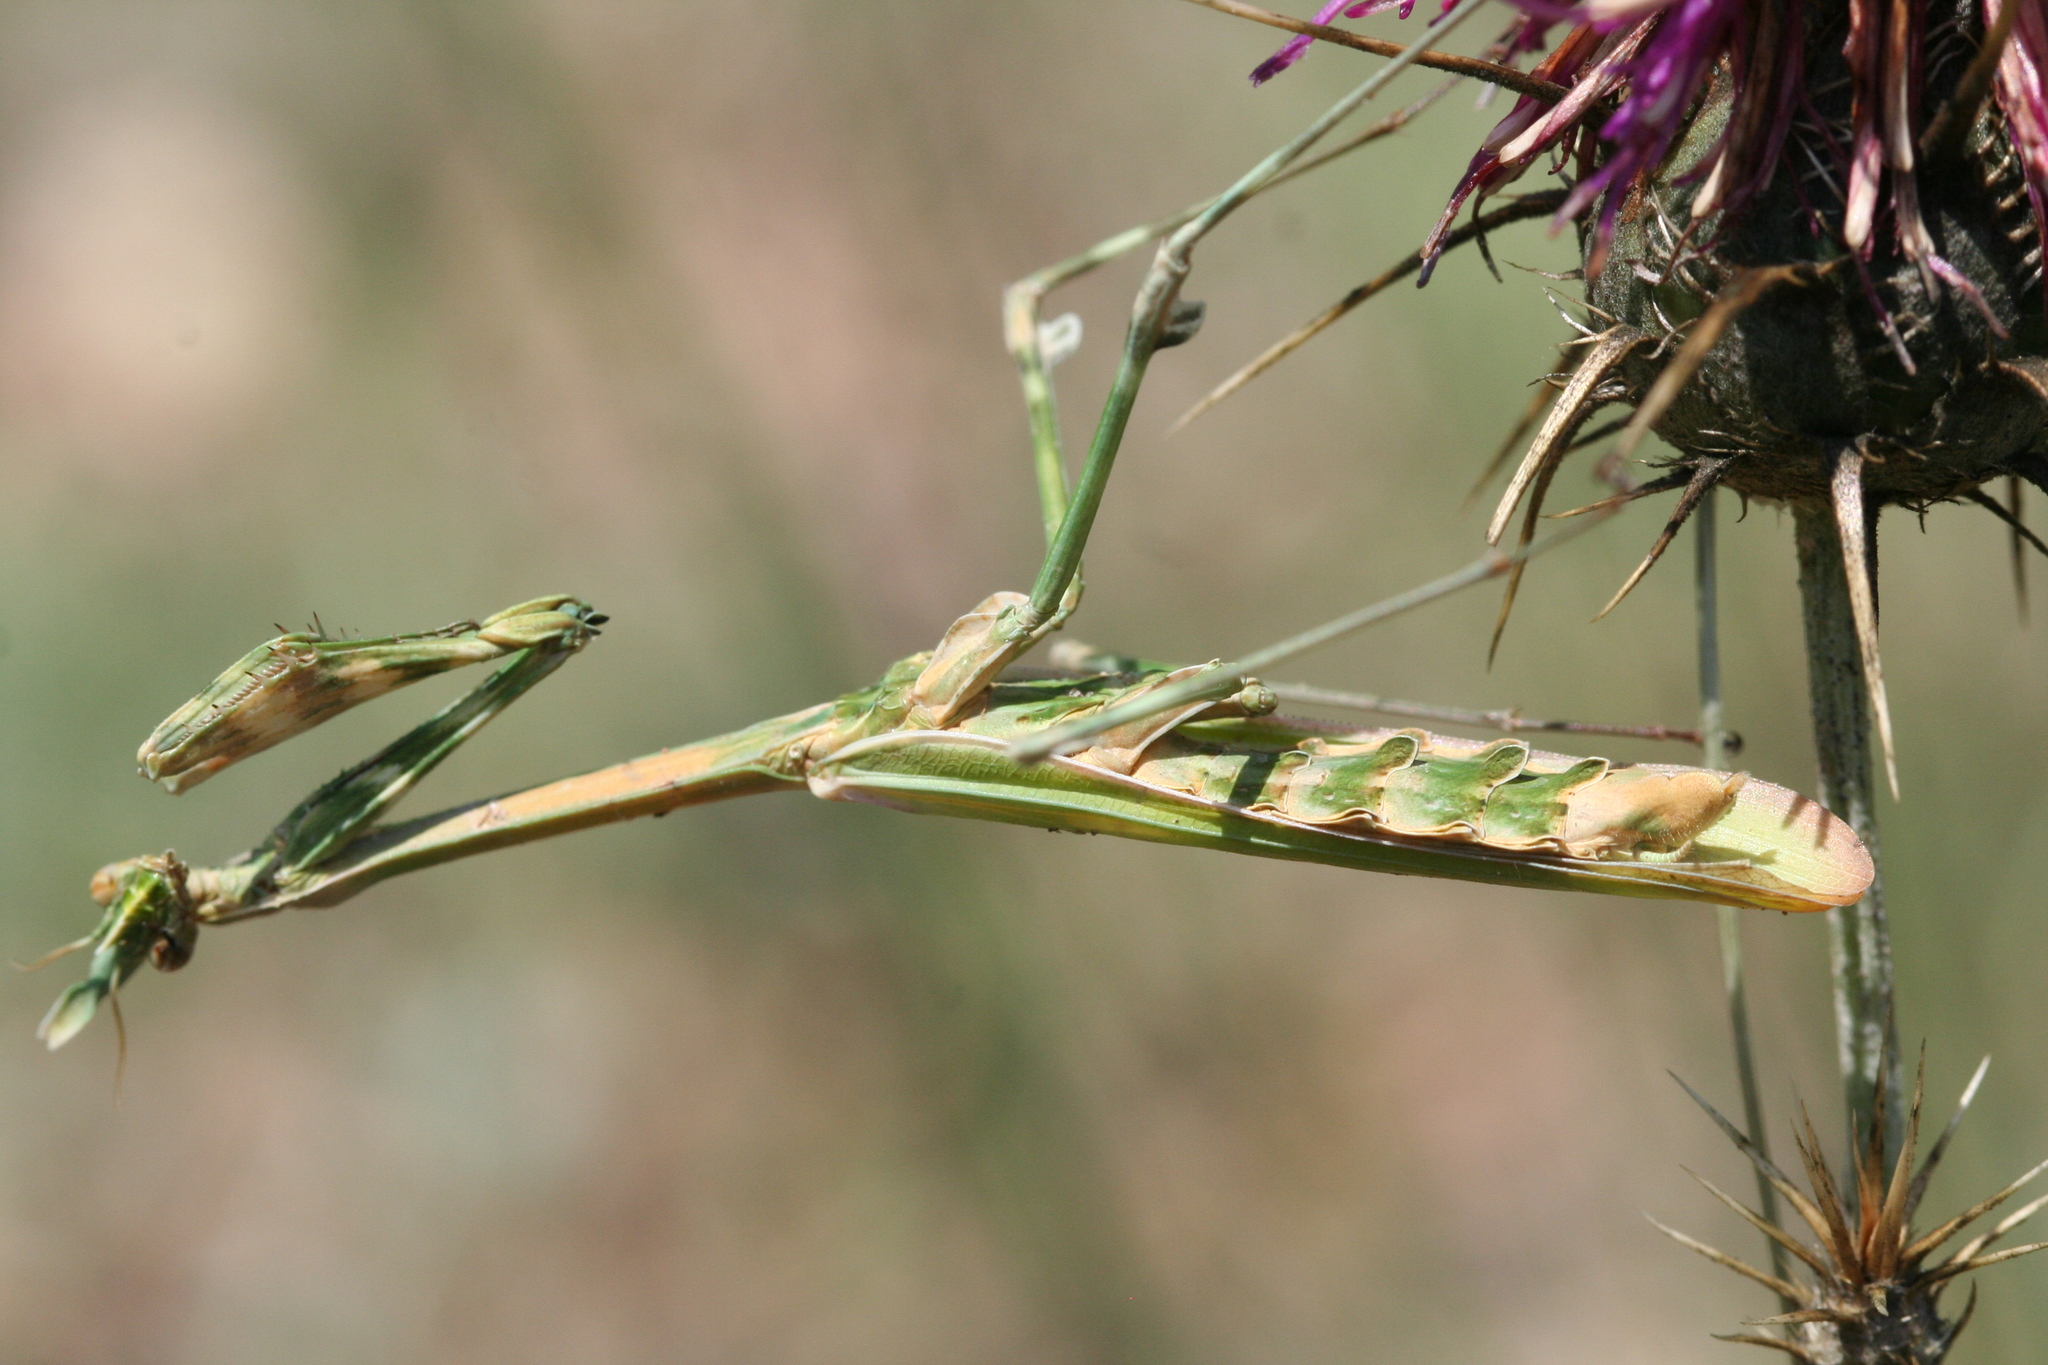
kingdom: Animalia
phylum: Arthropoda
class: Insecta
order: Mantodea
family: Empusidae
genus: Empusa
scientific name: Empusa fasciata
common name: Devil's mare
